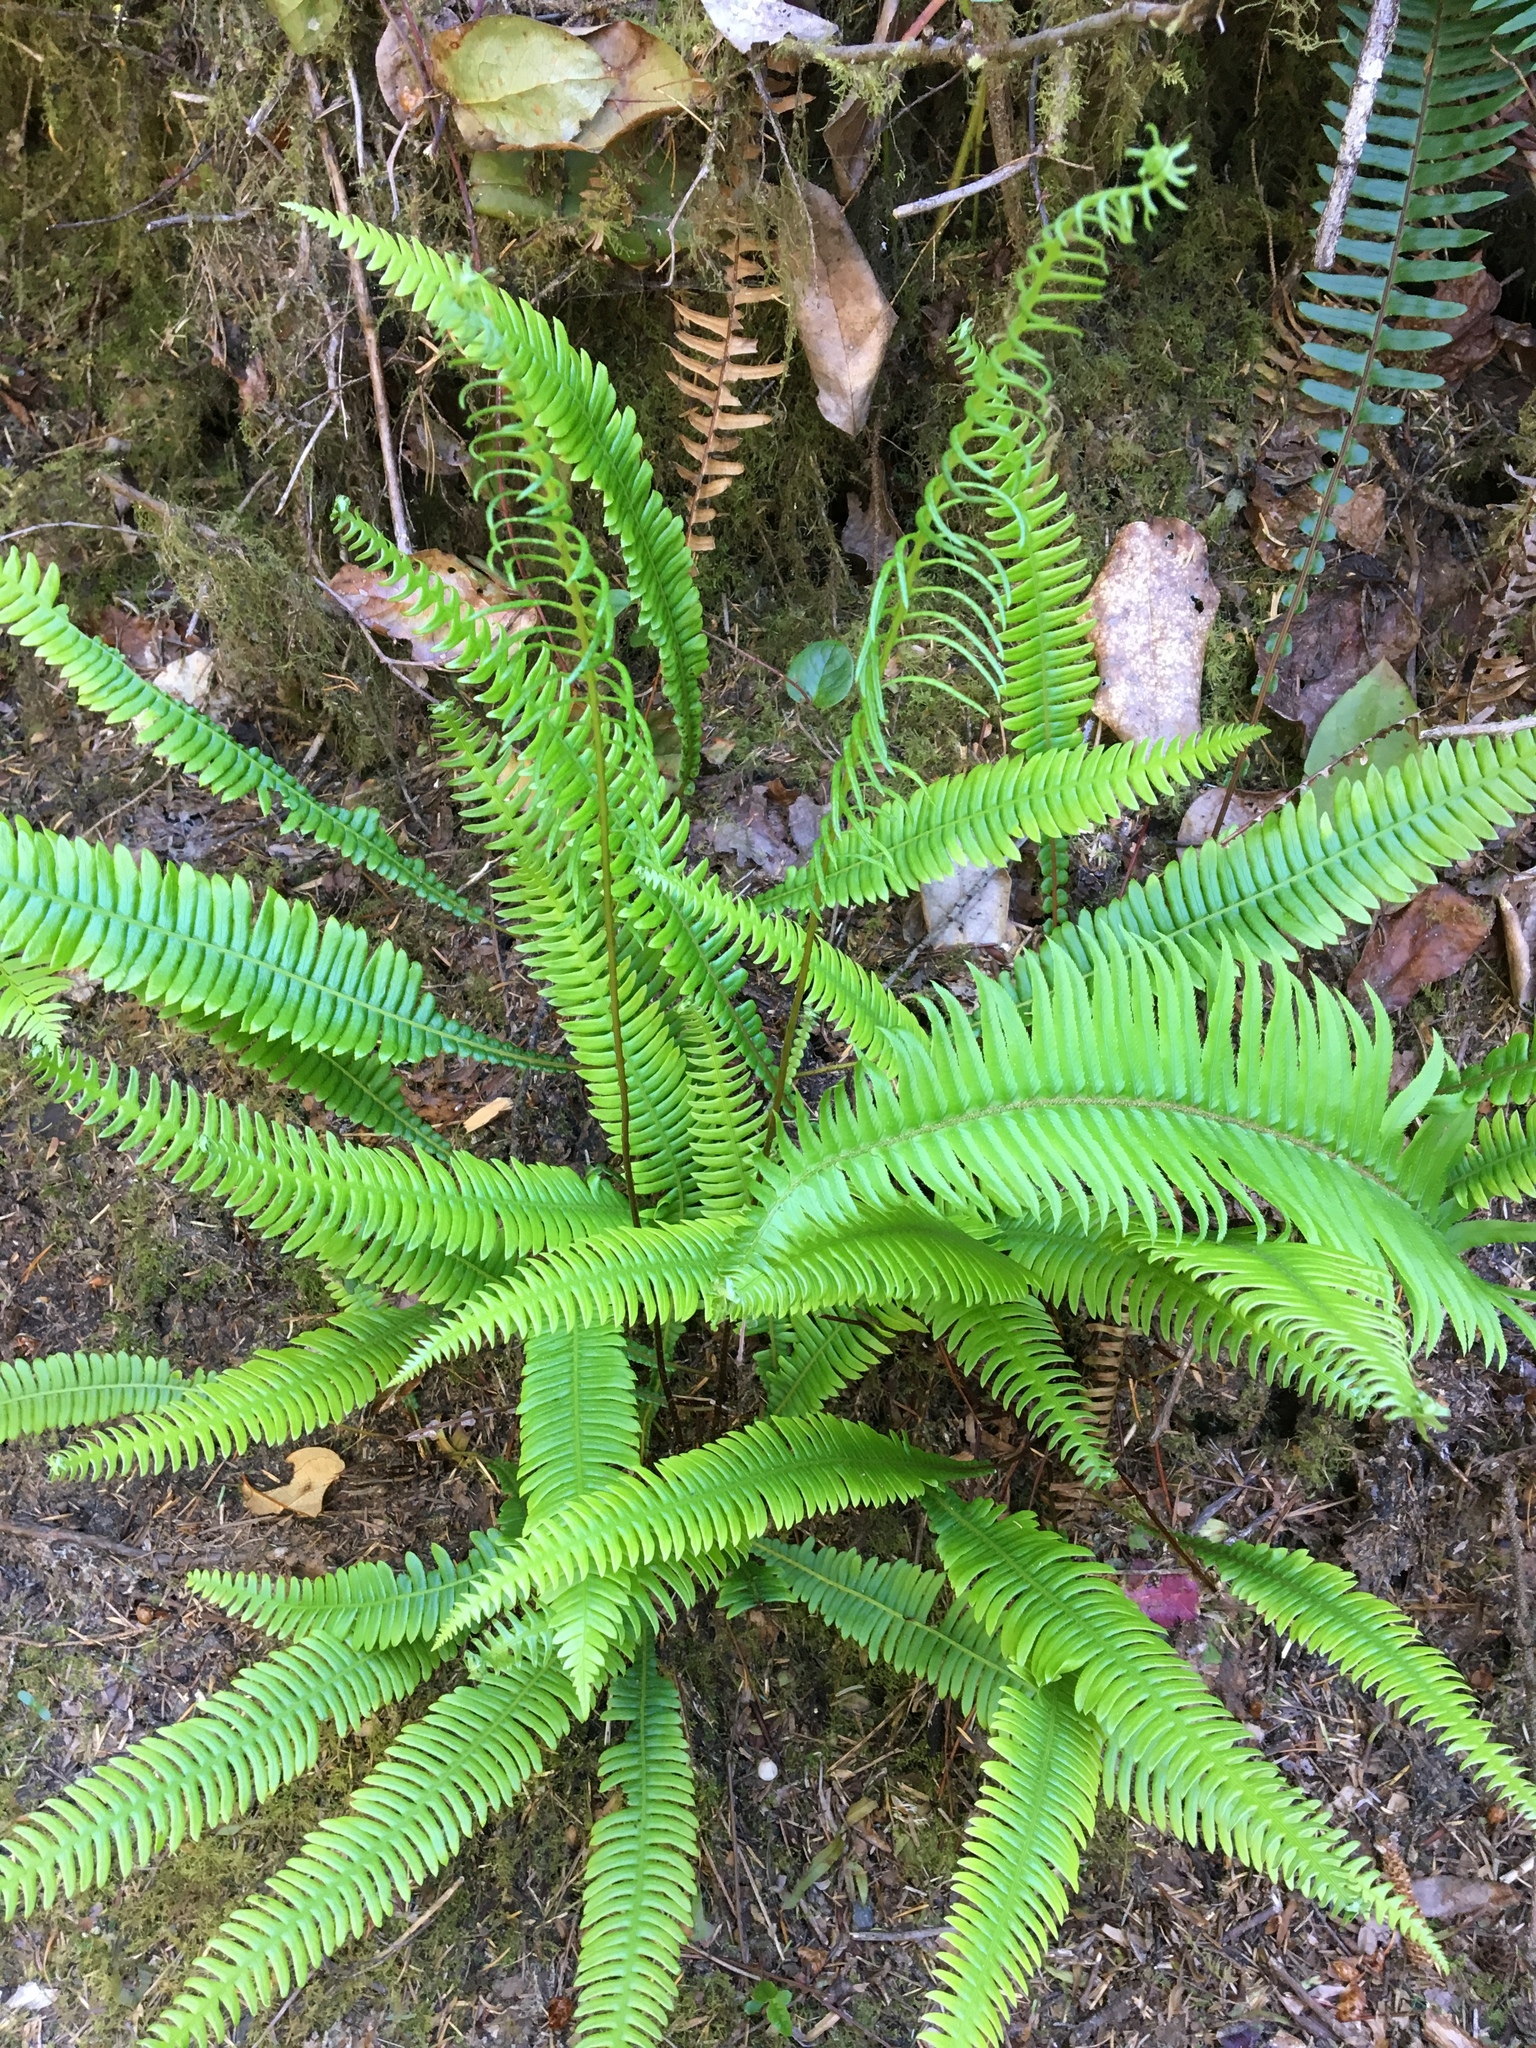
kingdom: Plantae
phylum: Tracheophyta
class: Polypodiopsida
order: Polypodiales
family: Blechnaceae
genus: Struthiopteris
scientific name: Struthiopteris spicant
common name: Deer fern
